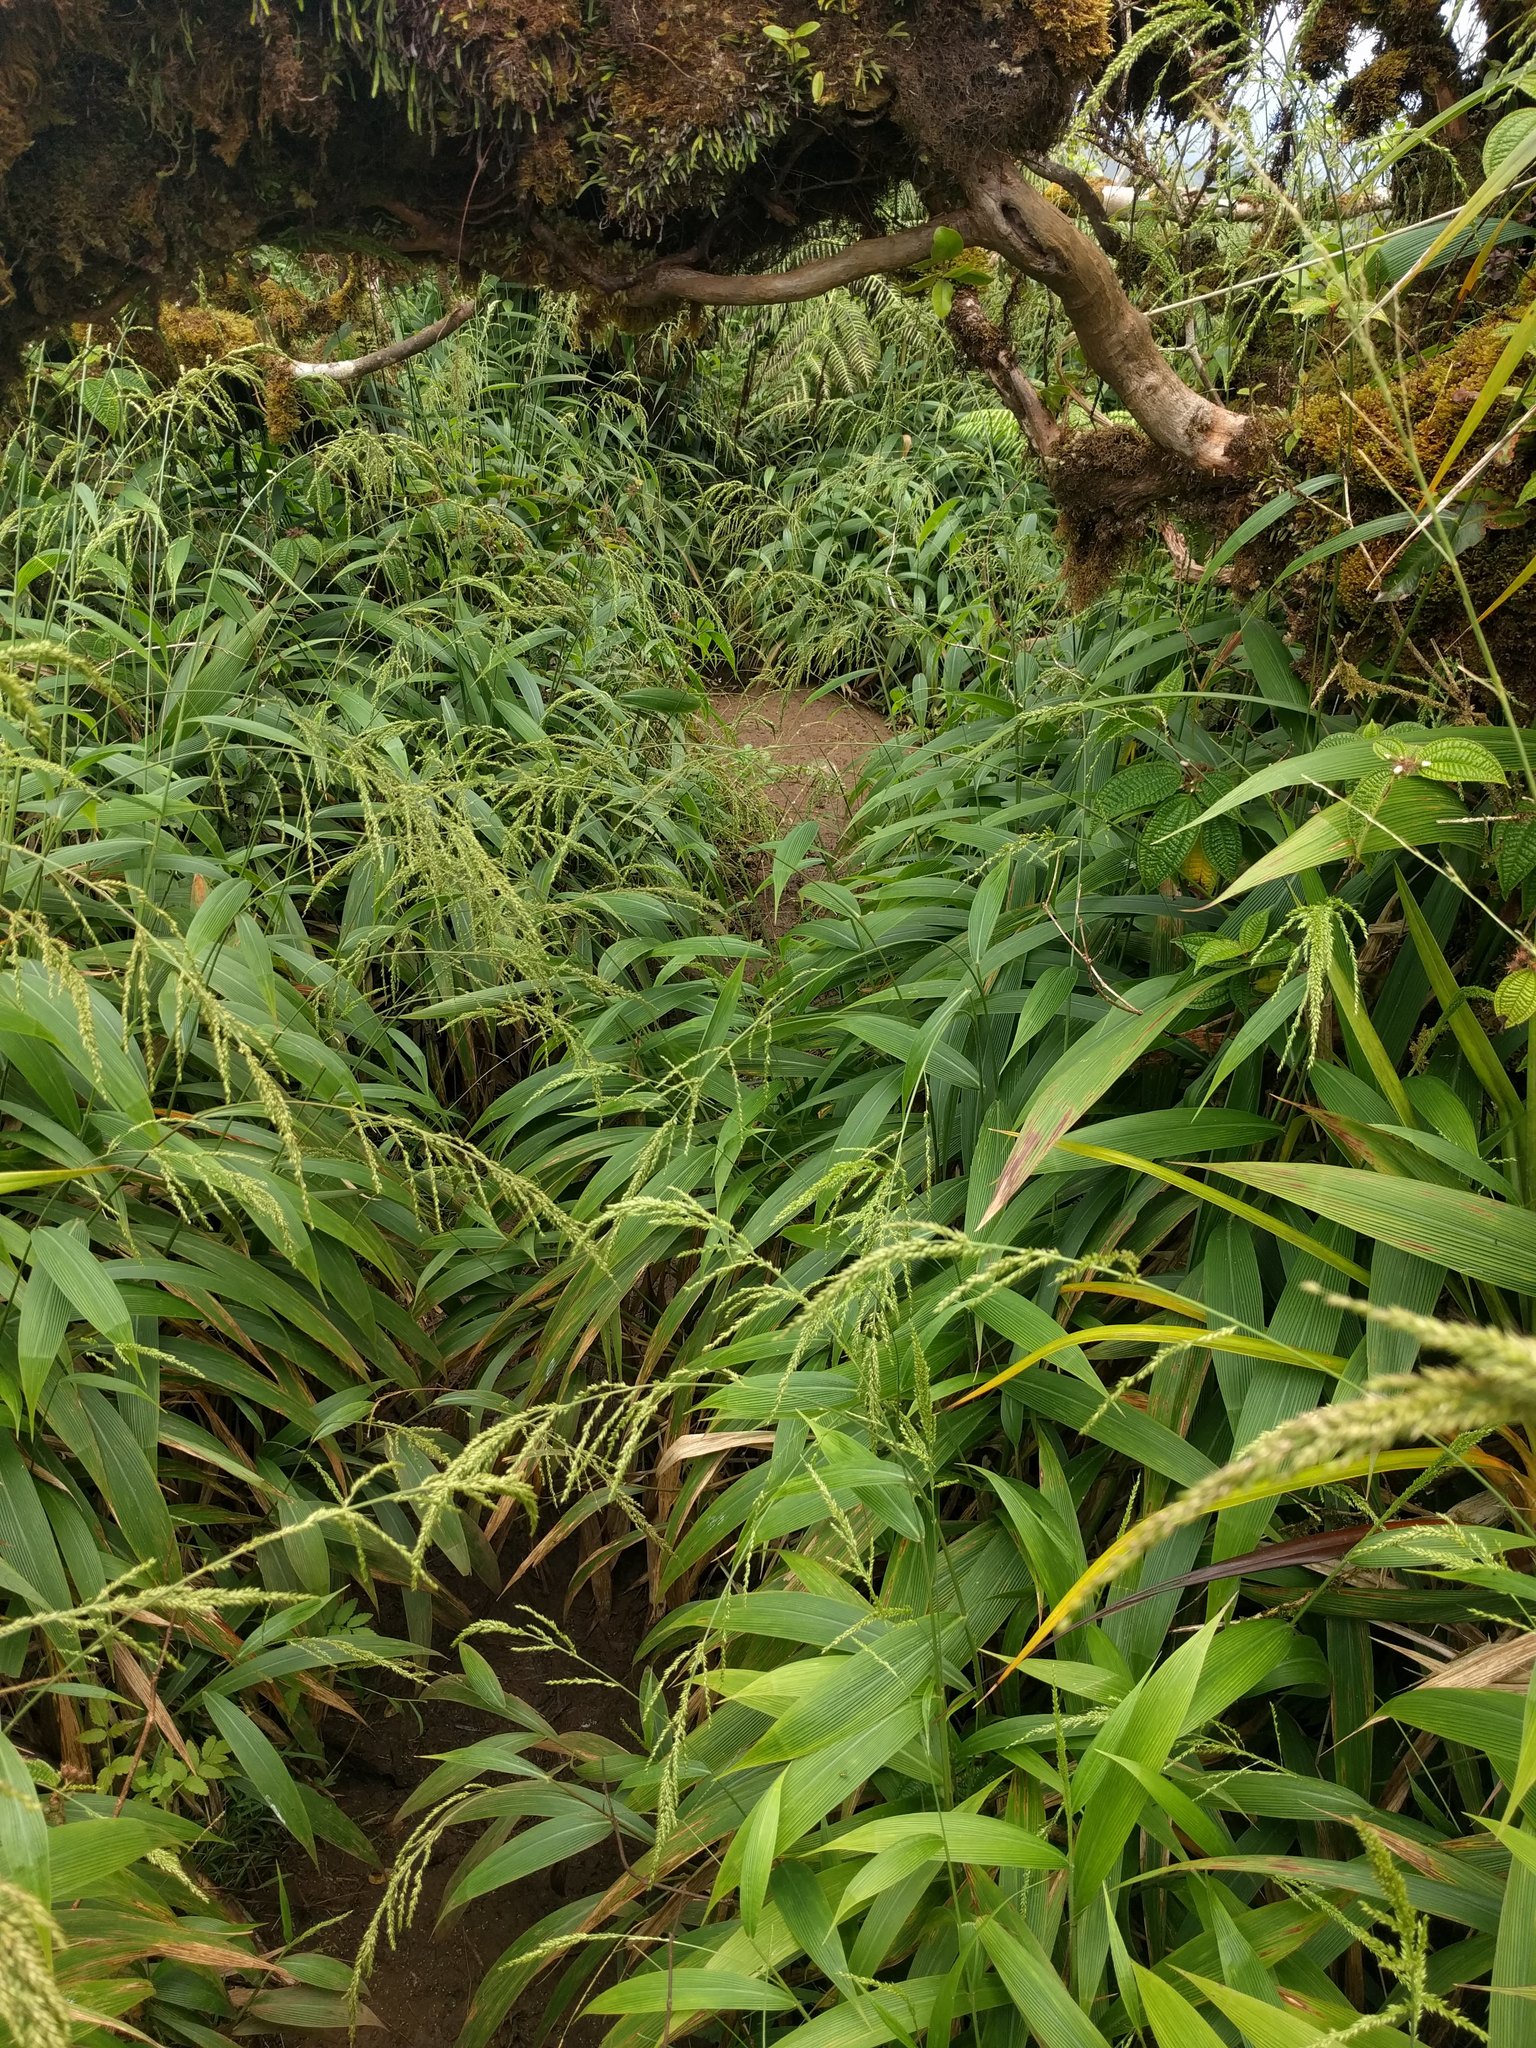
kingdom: Plantae
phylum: Tracheophyta
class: Liliopsida
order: Poales
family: Poaceae
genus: Setaria
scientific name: Setaria palmifolia
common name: Broadleaved bristlegrass
